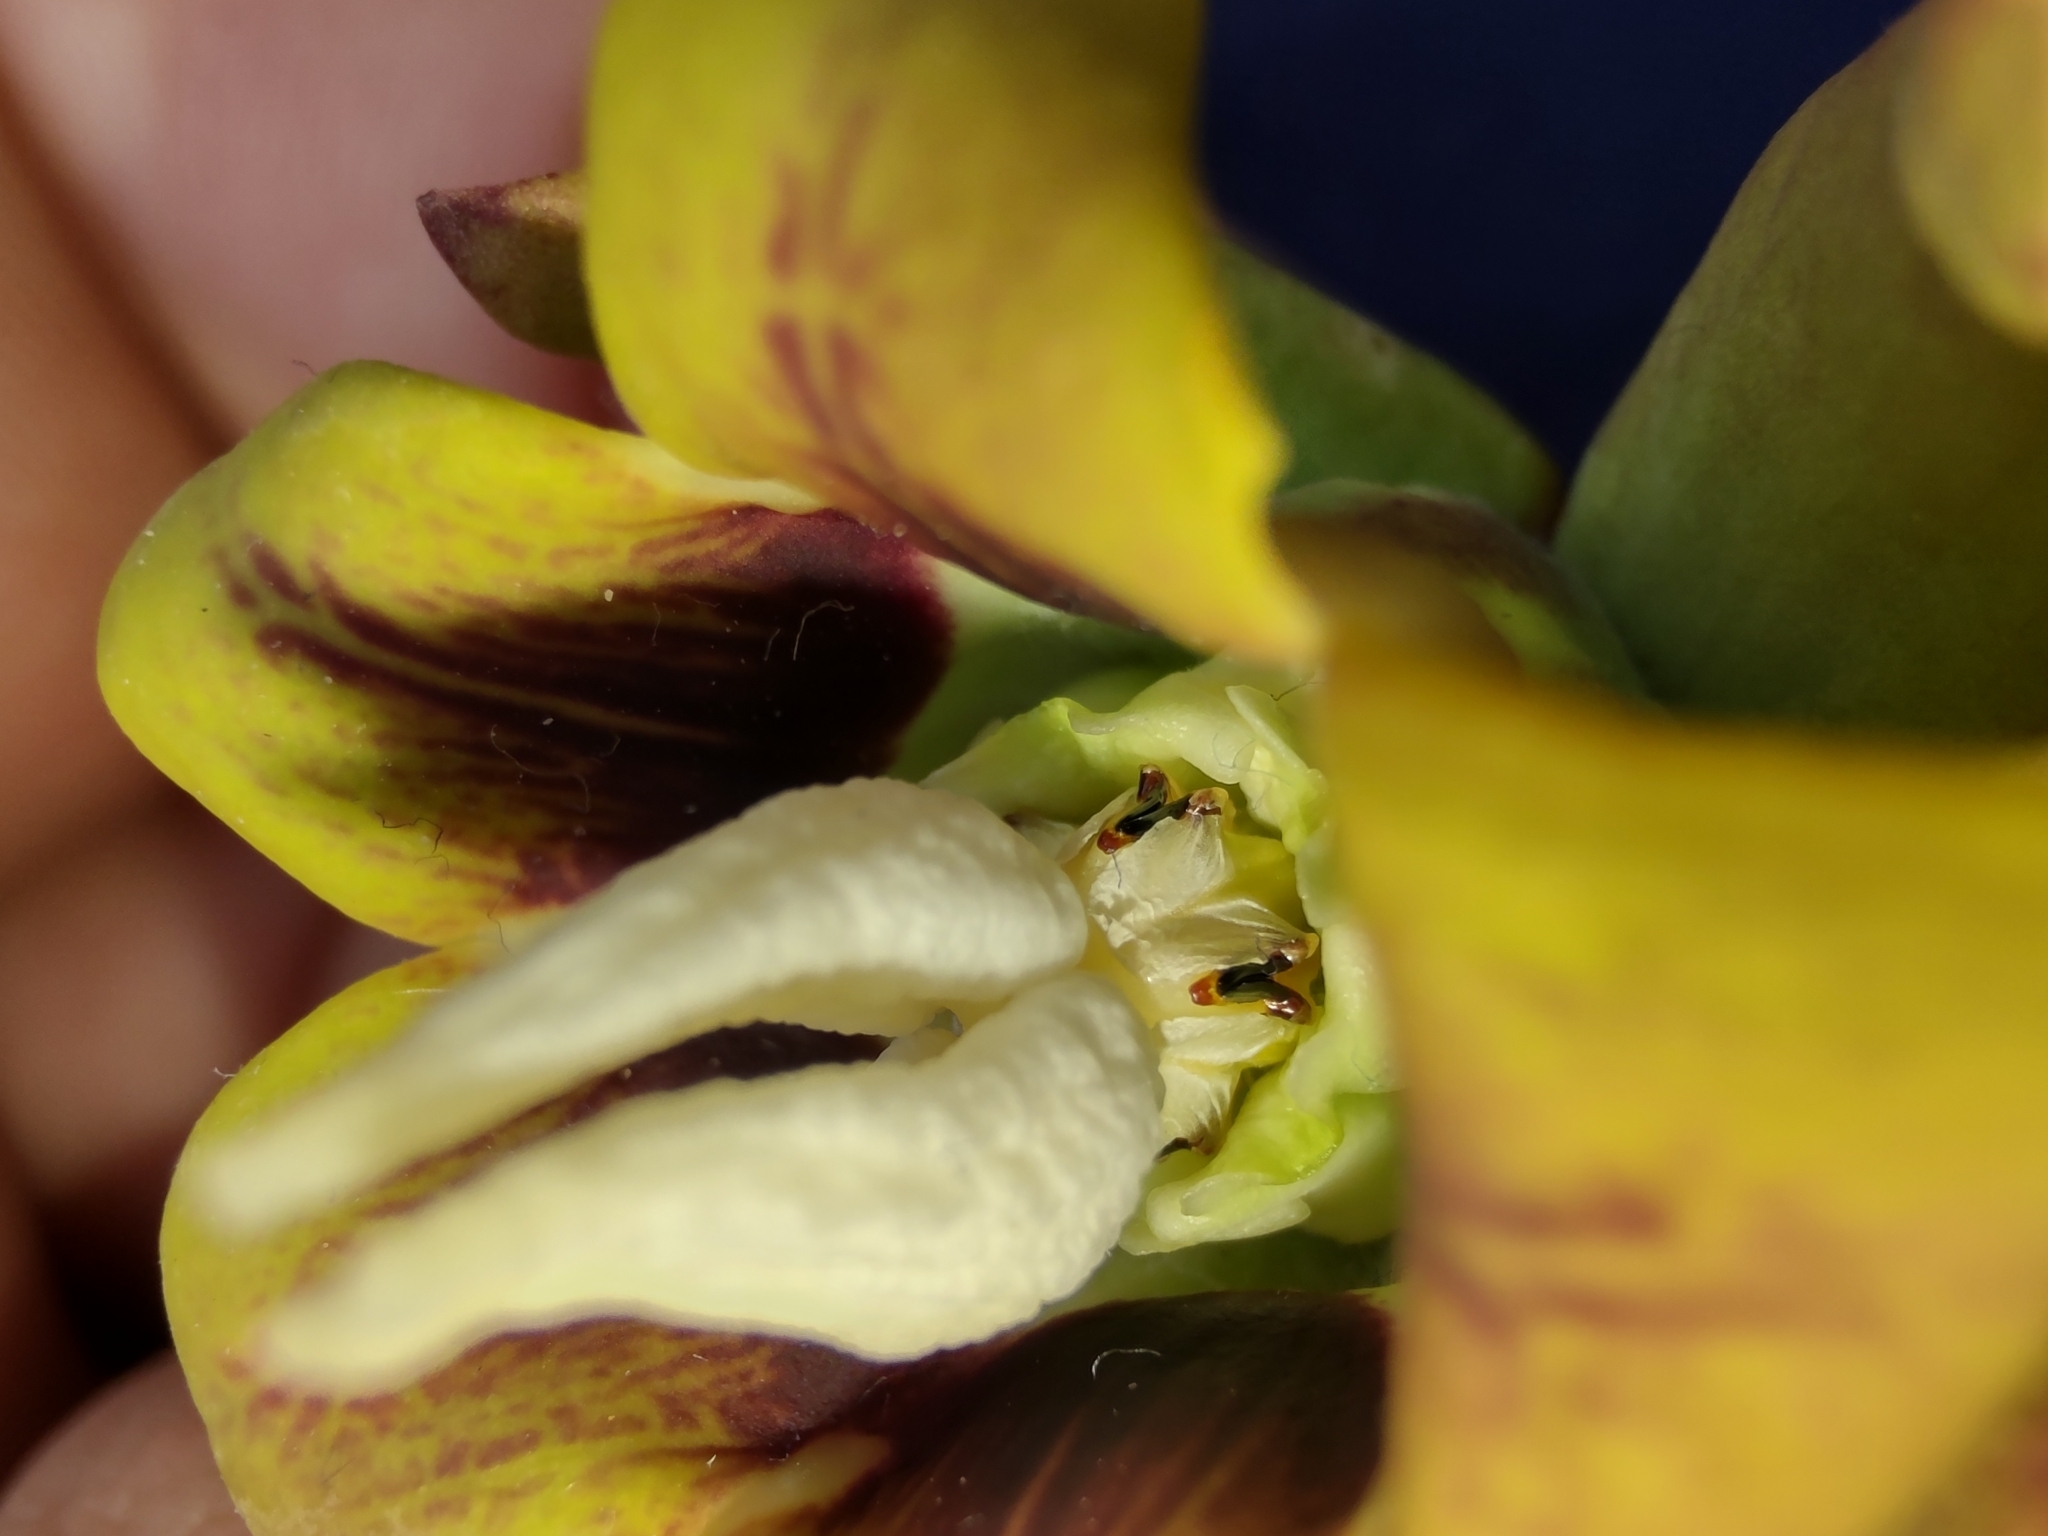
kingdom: Plantae
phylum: Tracheophyta
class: Magnoliopsida
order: Gentianales
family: Apocynaceae
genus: Araujia
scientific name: Araujia megapotamica
